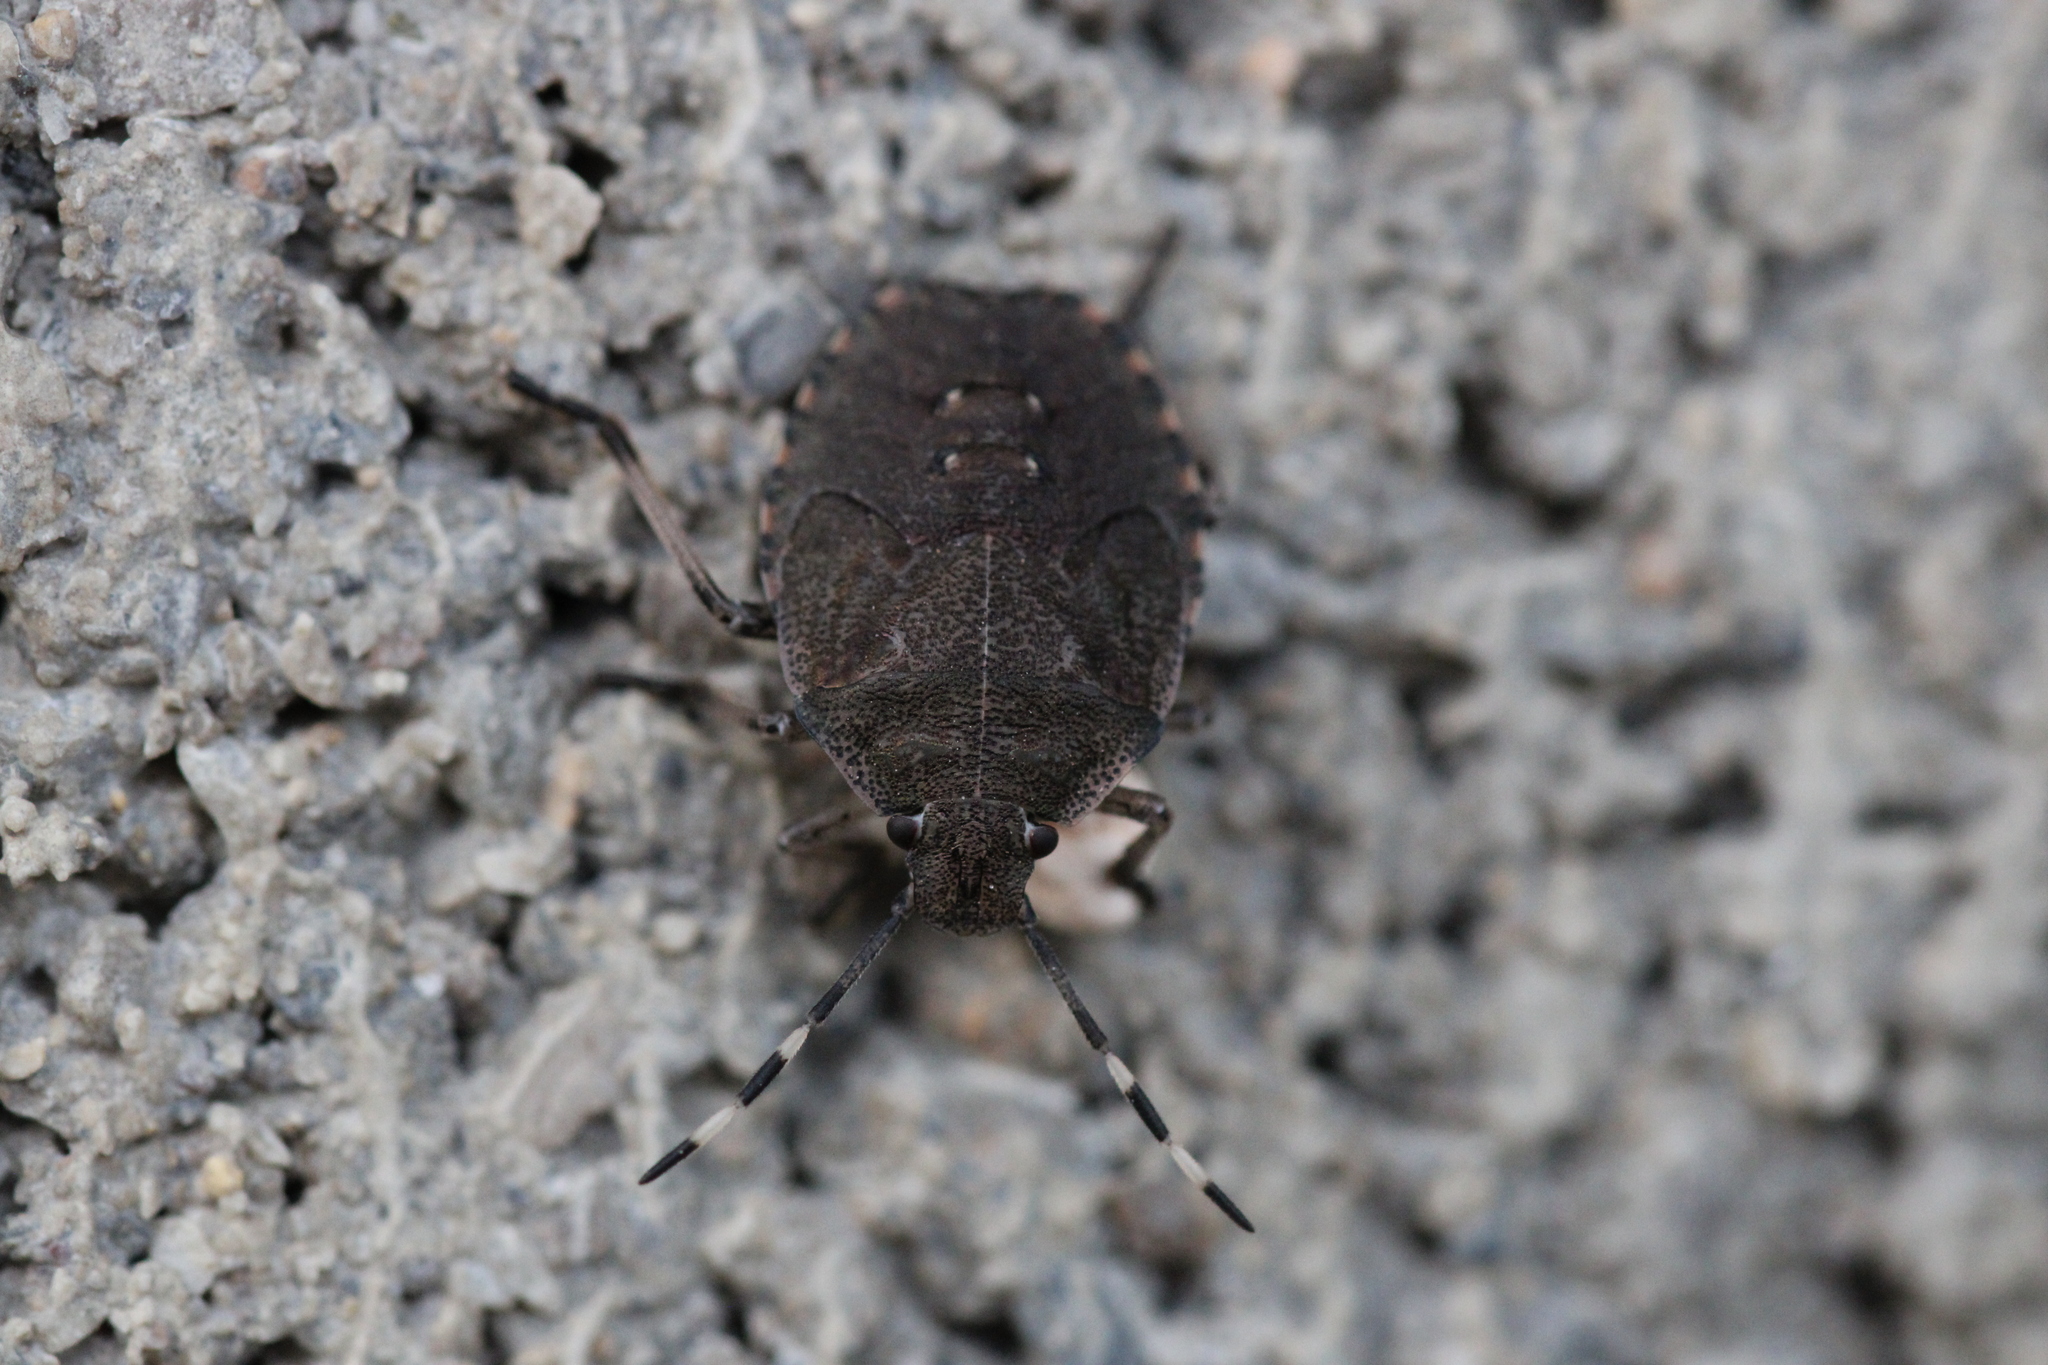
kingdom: Animalia
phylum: Arthropoda
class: Insecta
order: Hemiptera
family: Pentatomidae
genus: Rhaphigaster
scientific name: Rhaphigaster nebulosa
